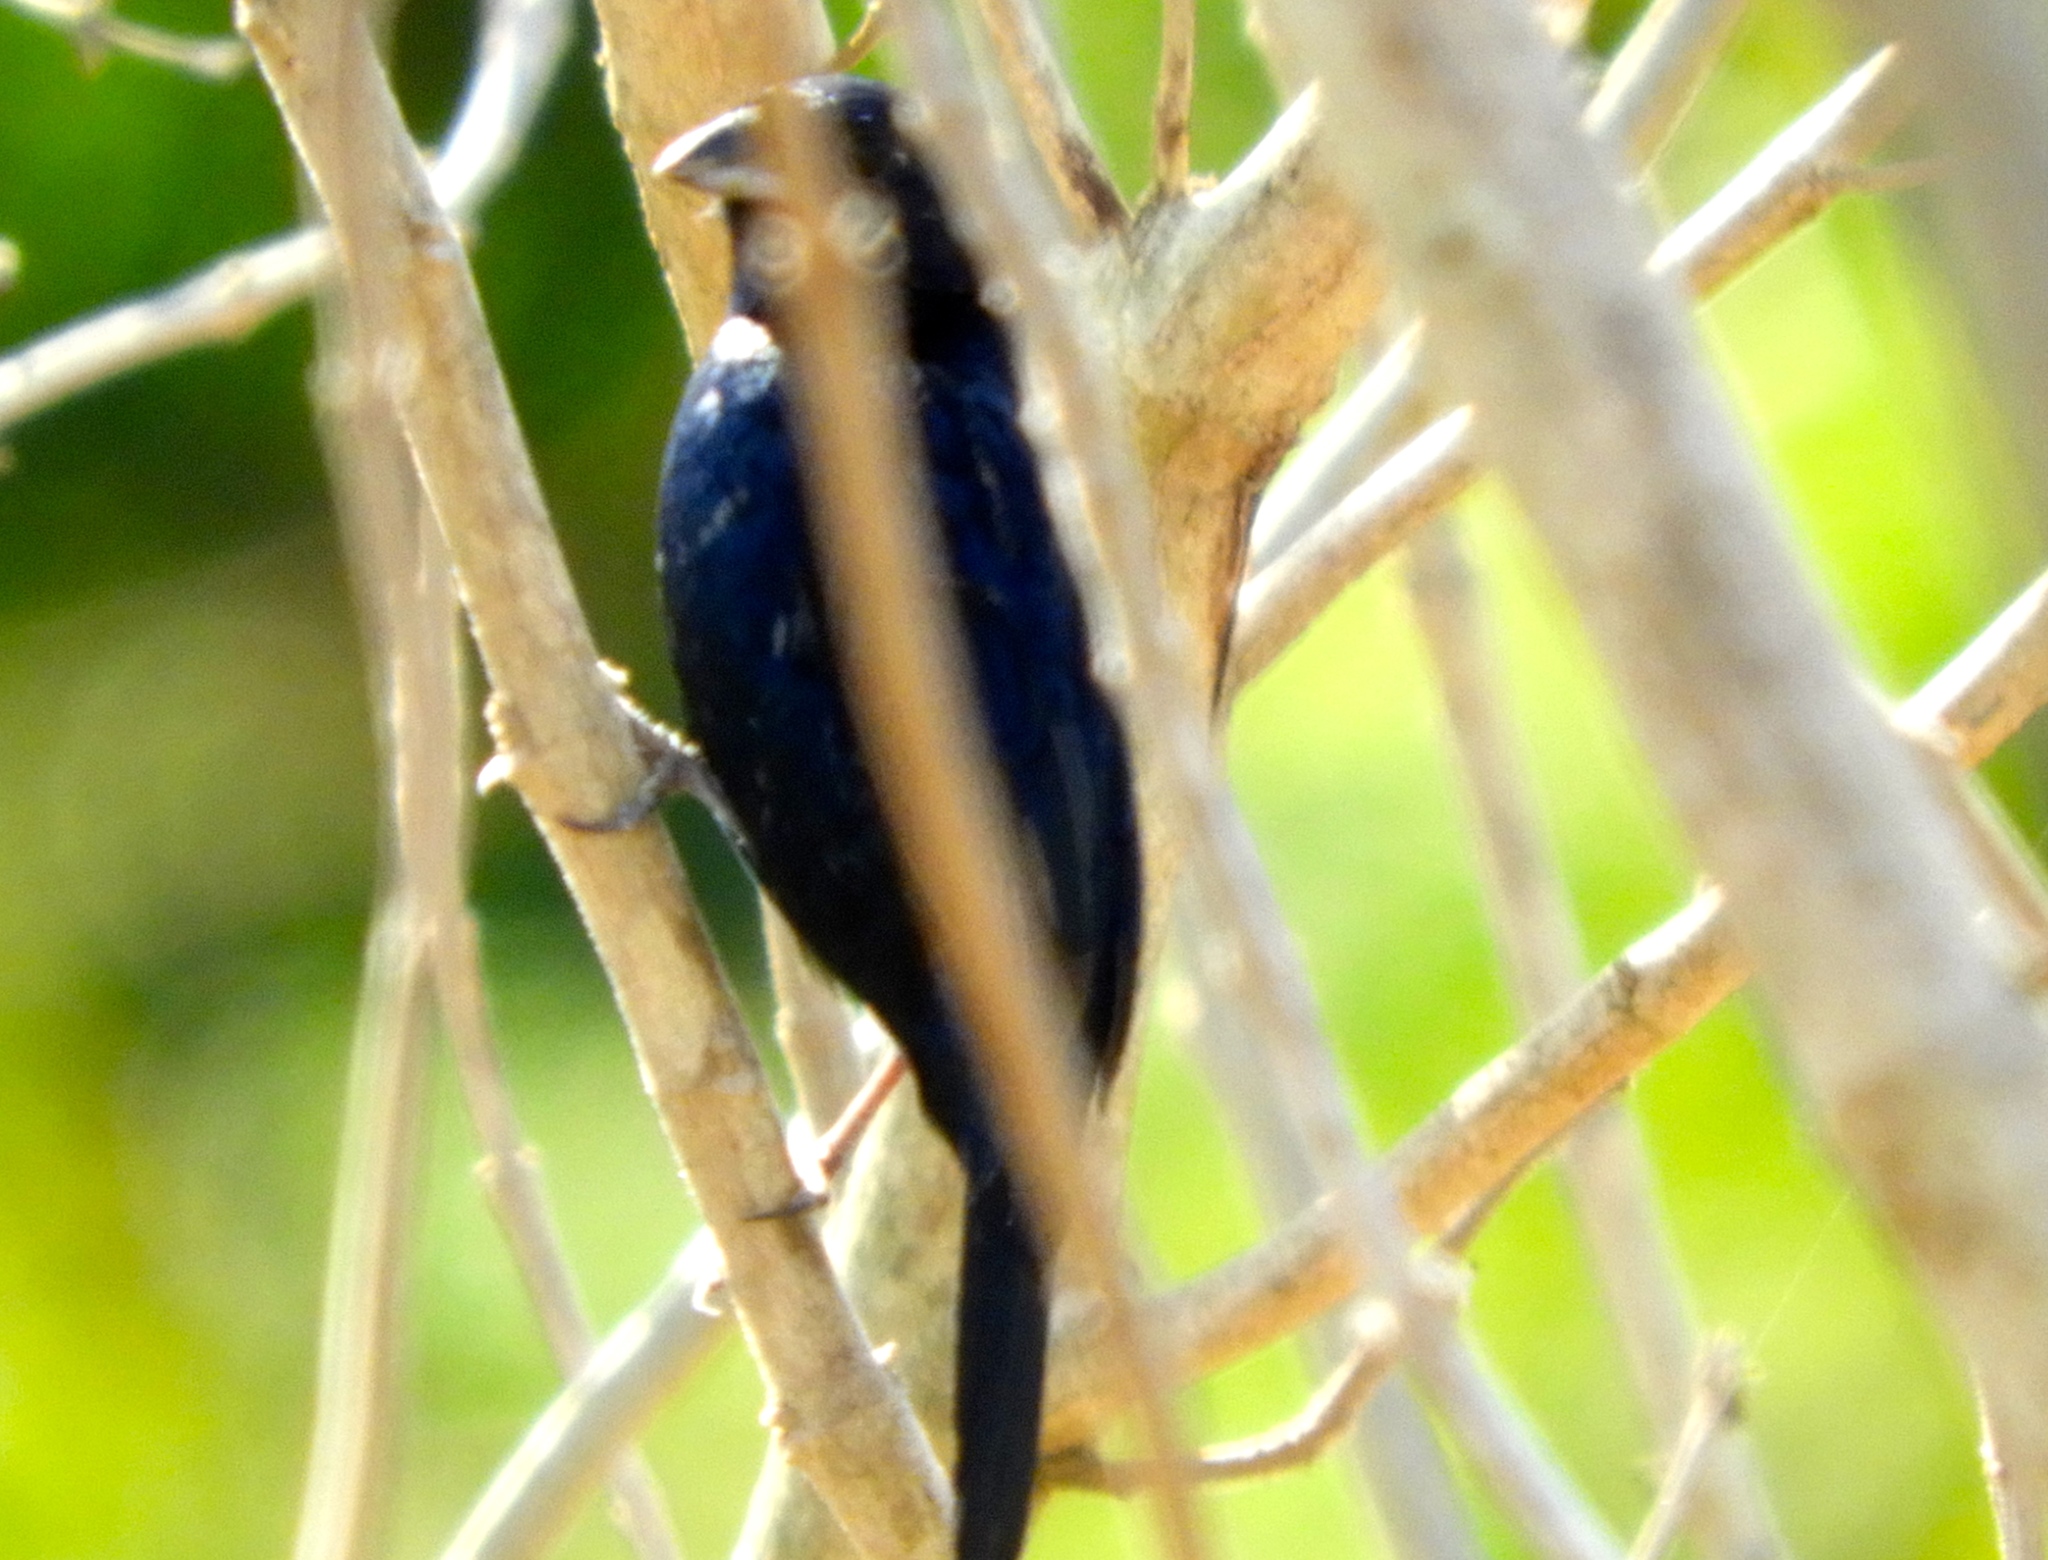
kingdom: Animalia
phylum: Chordata
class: Aves
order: Passeriformes
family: Thraupidae
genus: Volatinia
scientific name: Volatinia jacarina
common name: Blue-black grassquit
